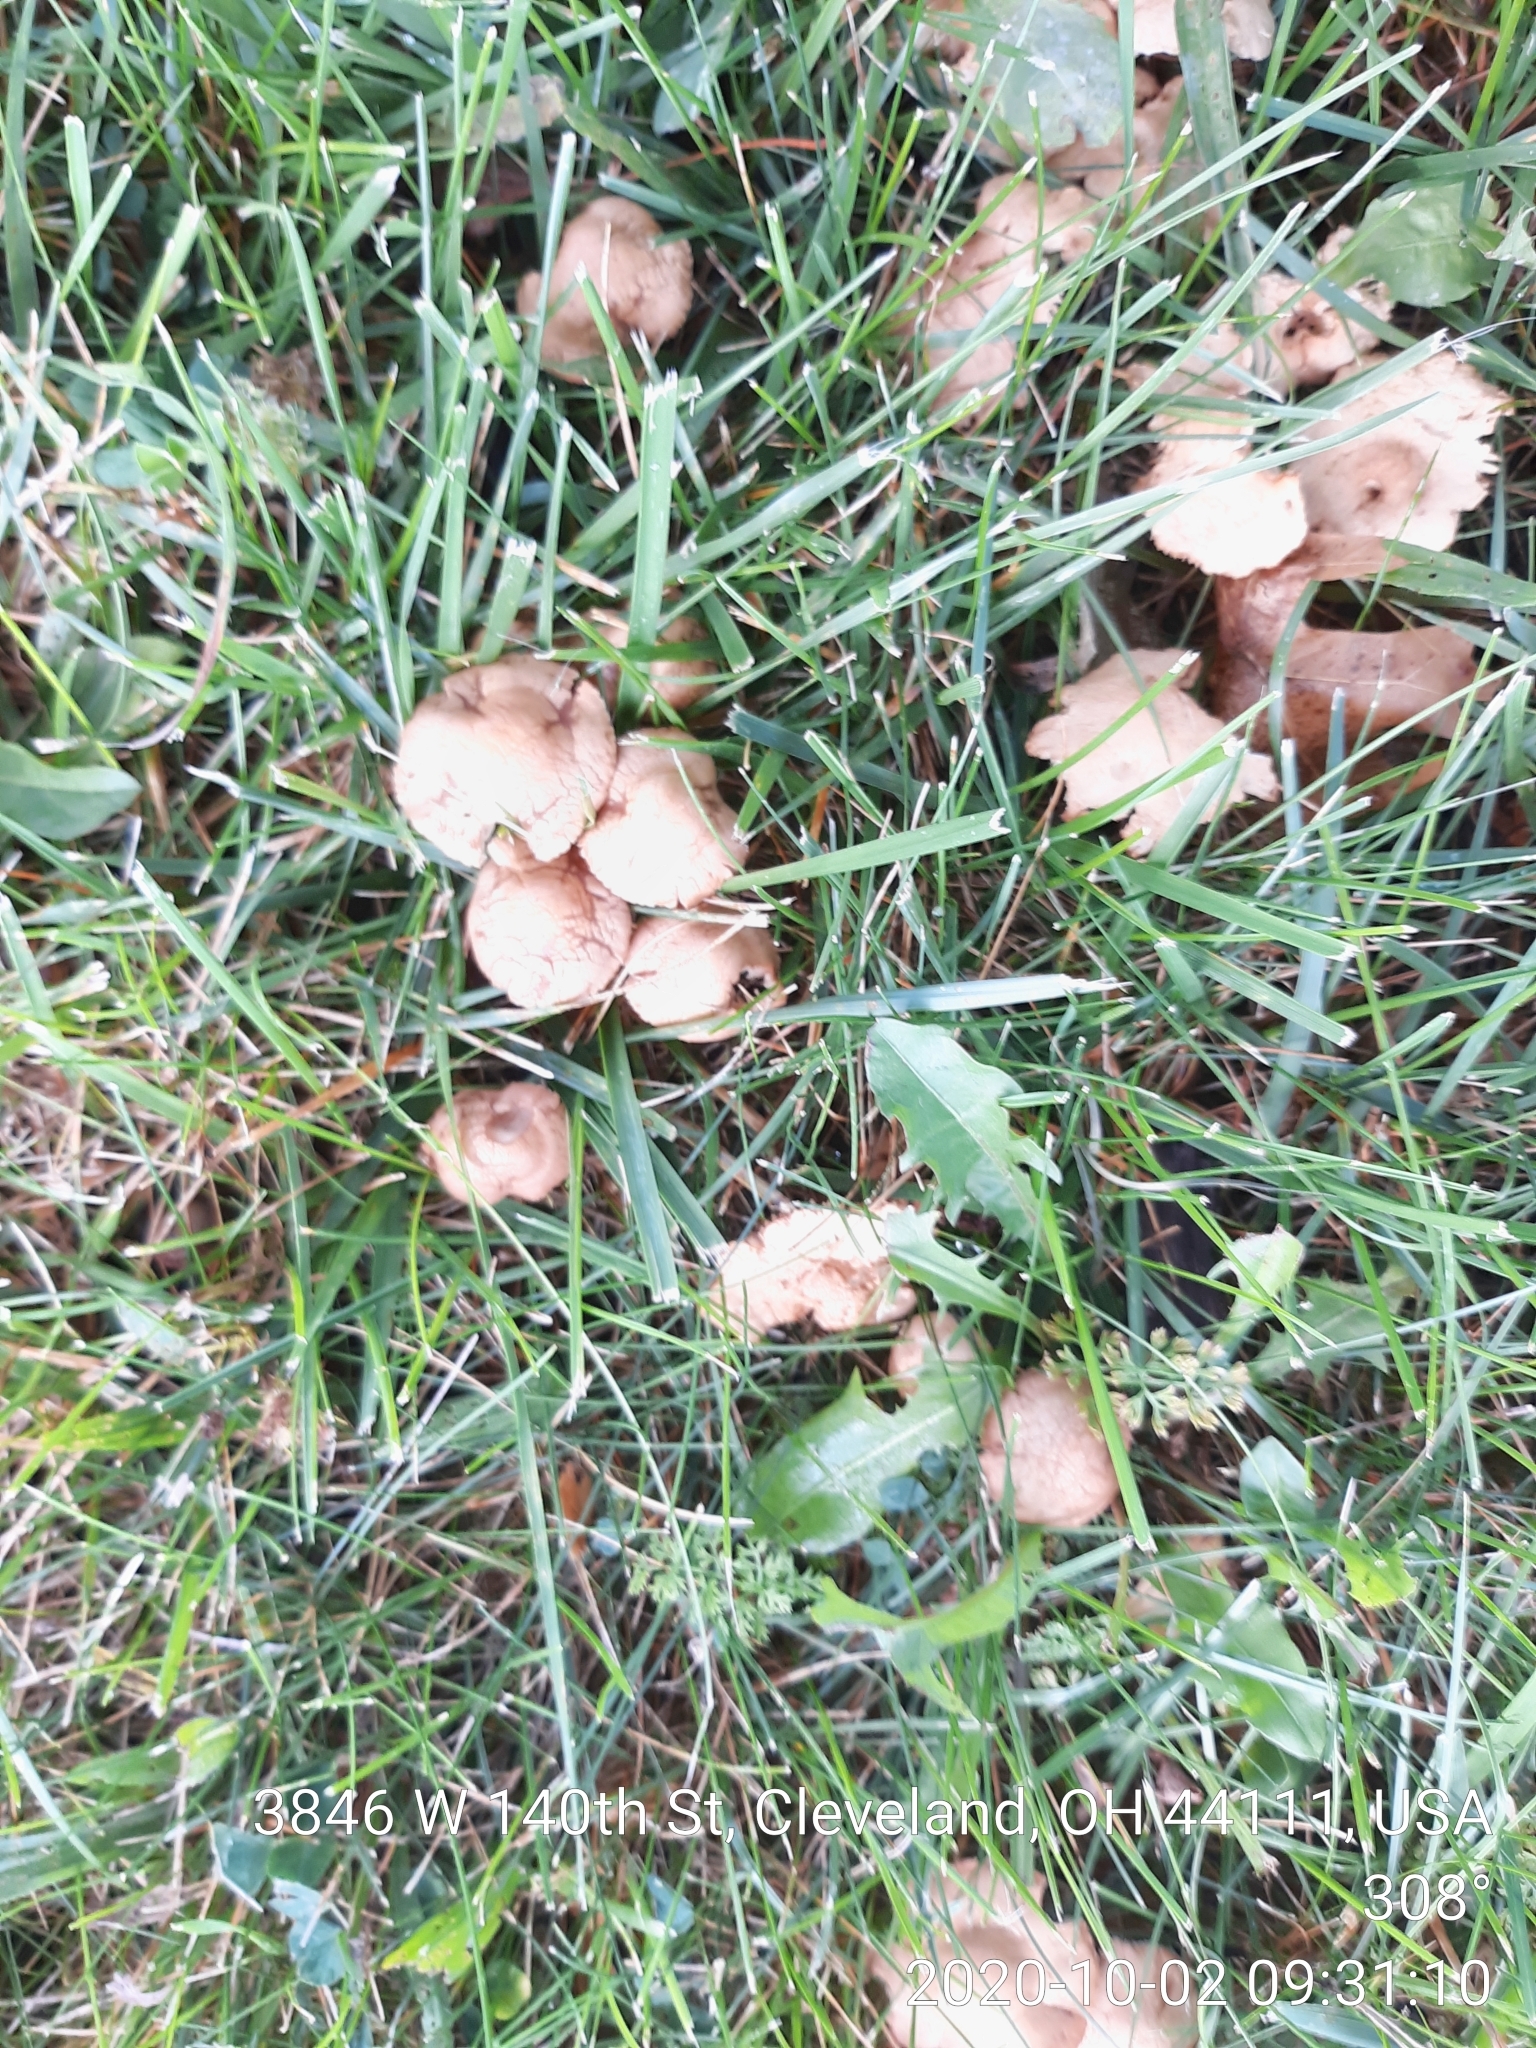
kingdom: Fungi
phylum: Basidiomycota
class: Agaricomycetes
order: Agaricales
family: Marasmiaceae
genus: Marasmius
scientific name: Marasmius oreades
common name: Fairy ring champignon
